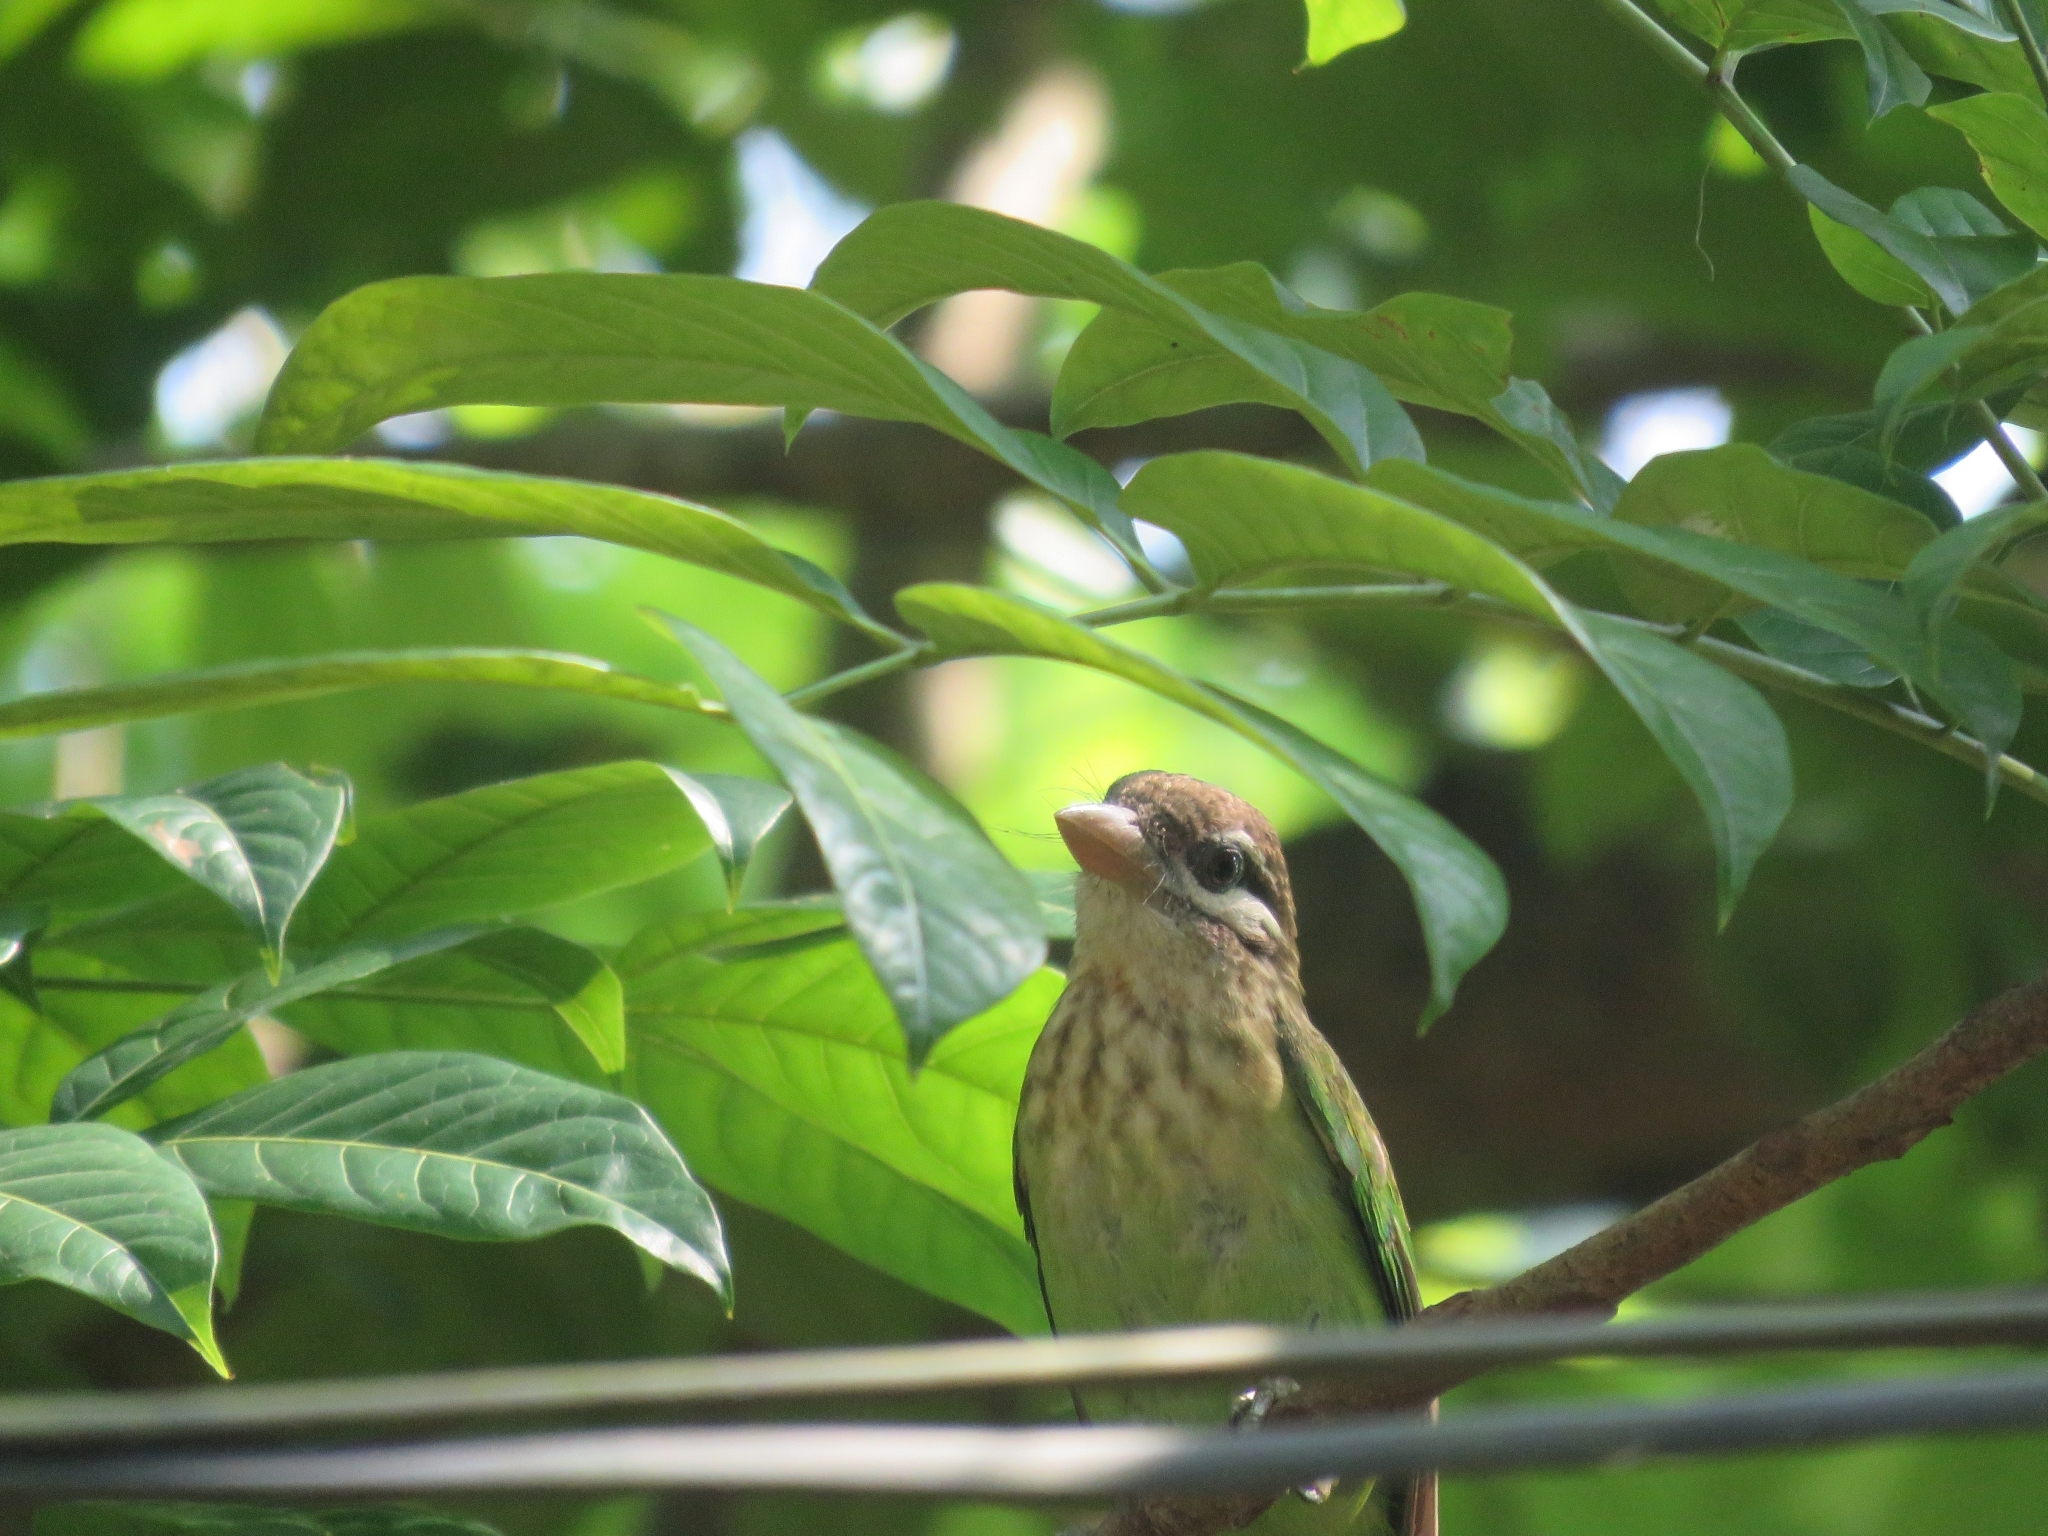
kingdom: Animalia
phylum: Chordata
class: Aves
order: Piciformes
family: Megalaimidae
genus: Psilopogon
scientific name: Psilopogon viridis
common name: White-cheeked barbet
